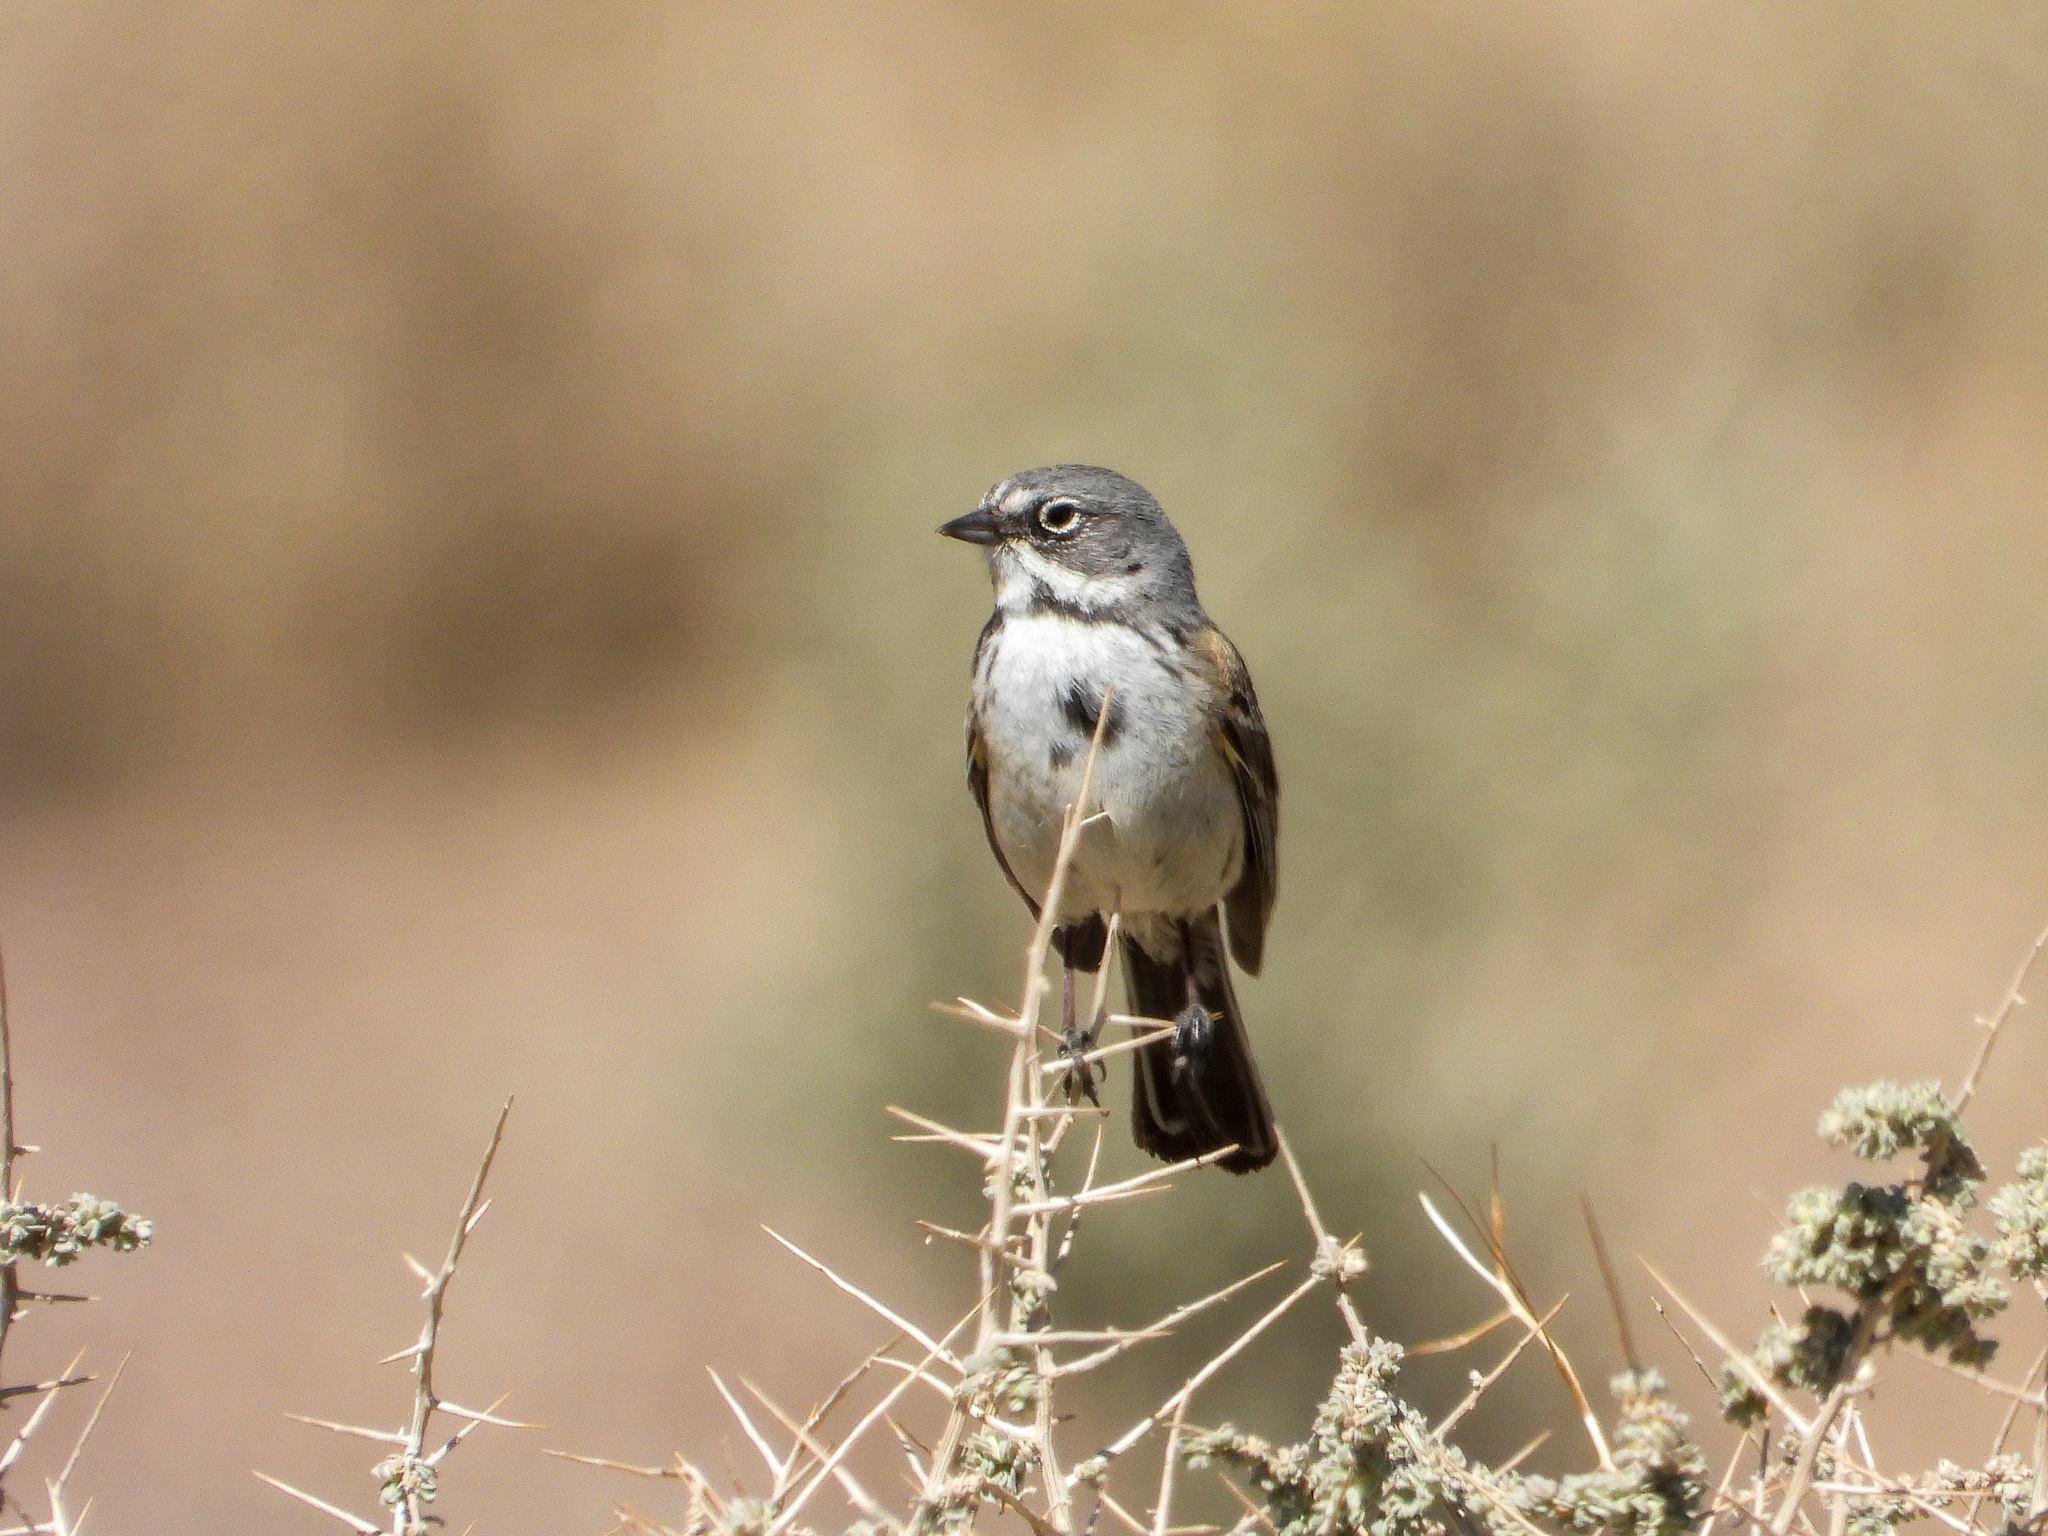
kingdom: Animalia
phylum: Chordata
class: Aves
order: Passeriformes
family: Passerellidae
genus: Artemisiospiza
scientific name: Artemisiospiza belli
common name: Bell's sparrow
